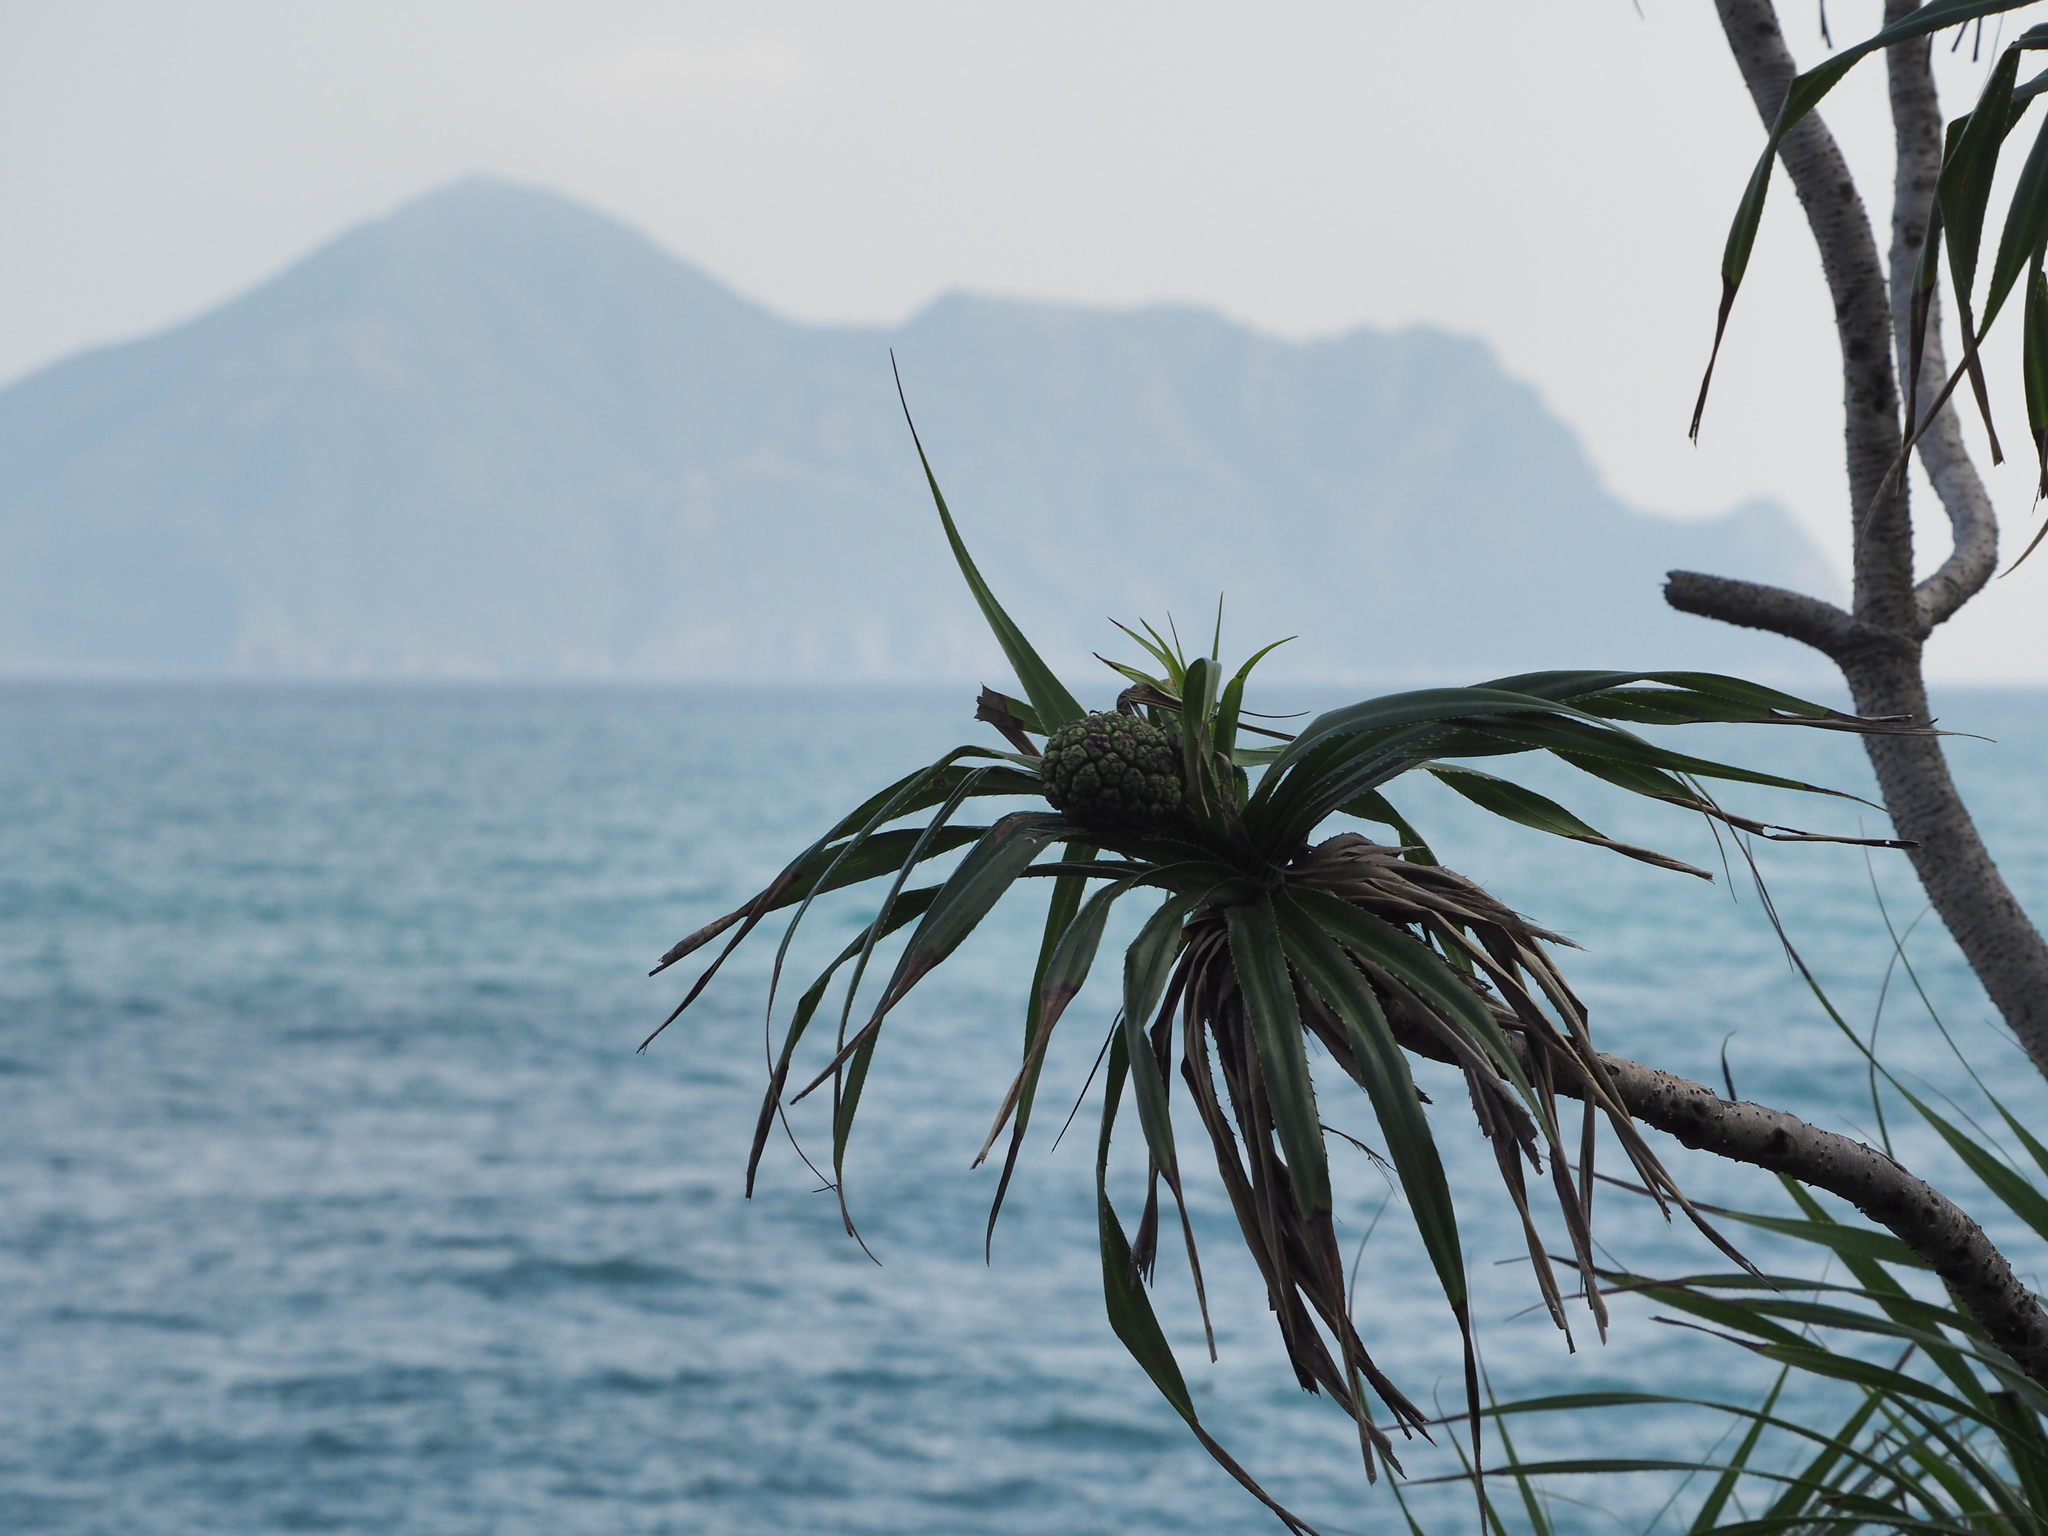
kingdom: Plantae
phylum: Tracheophyta
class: Liliopsida
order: Pandanales
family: Pandanaceae
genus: Pandanus
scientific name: Pandanus odorifer
